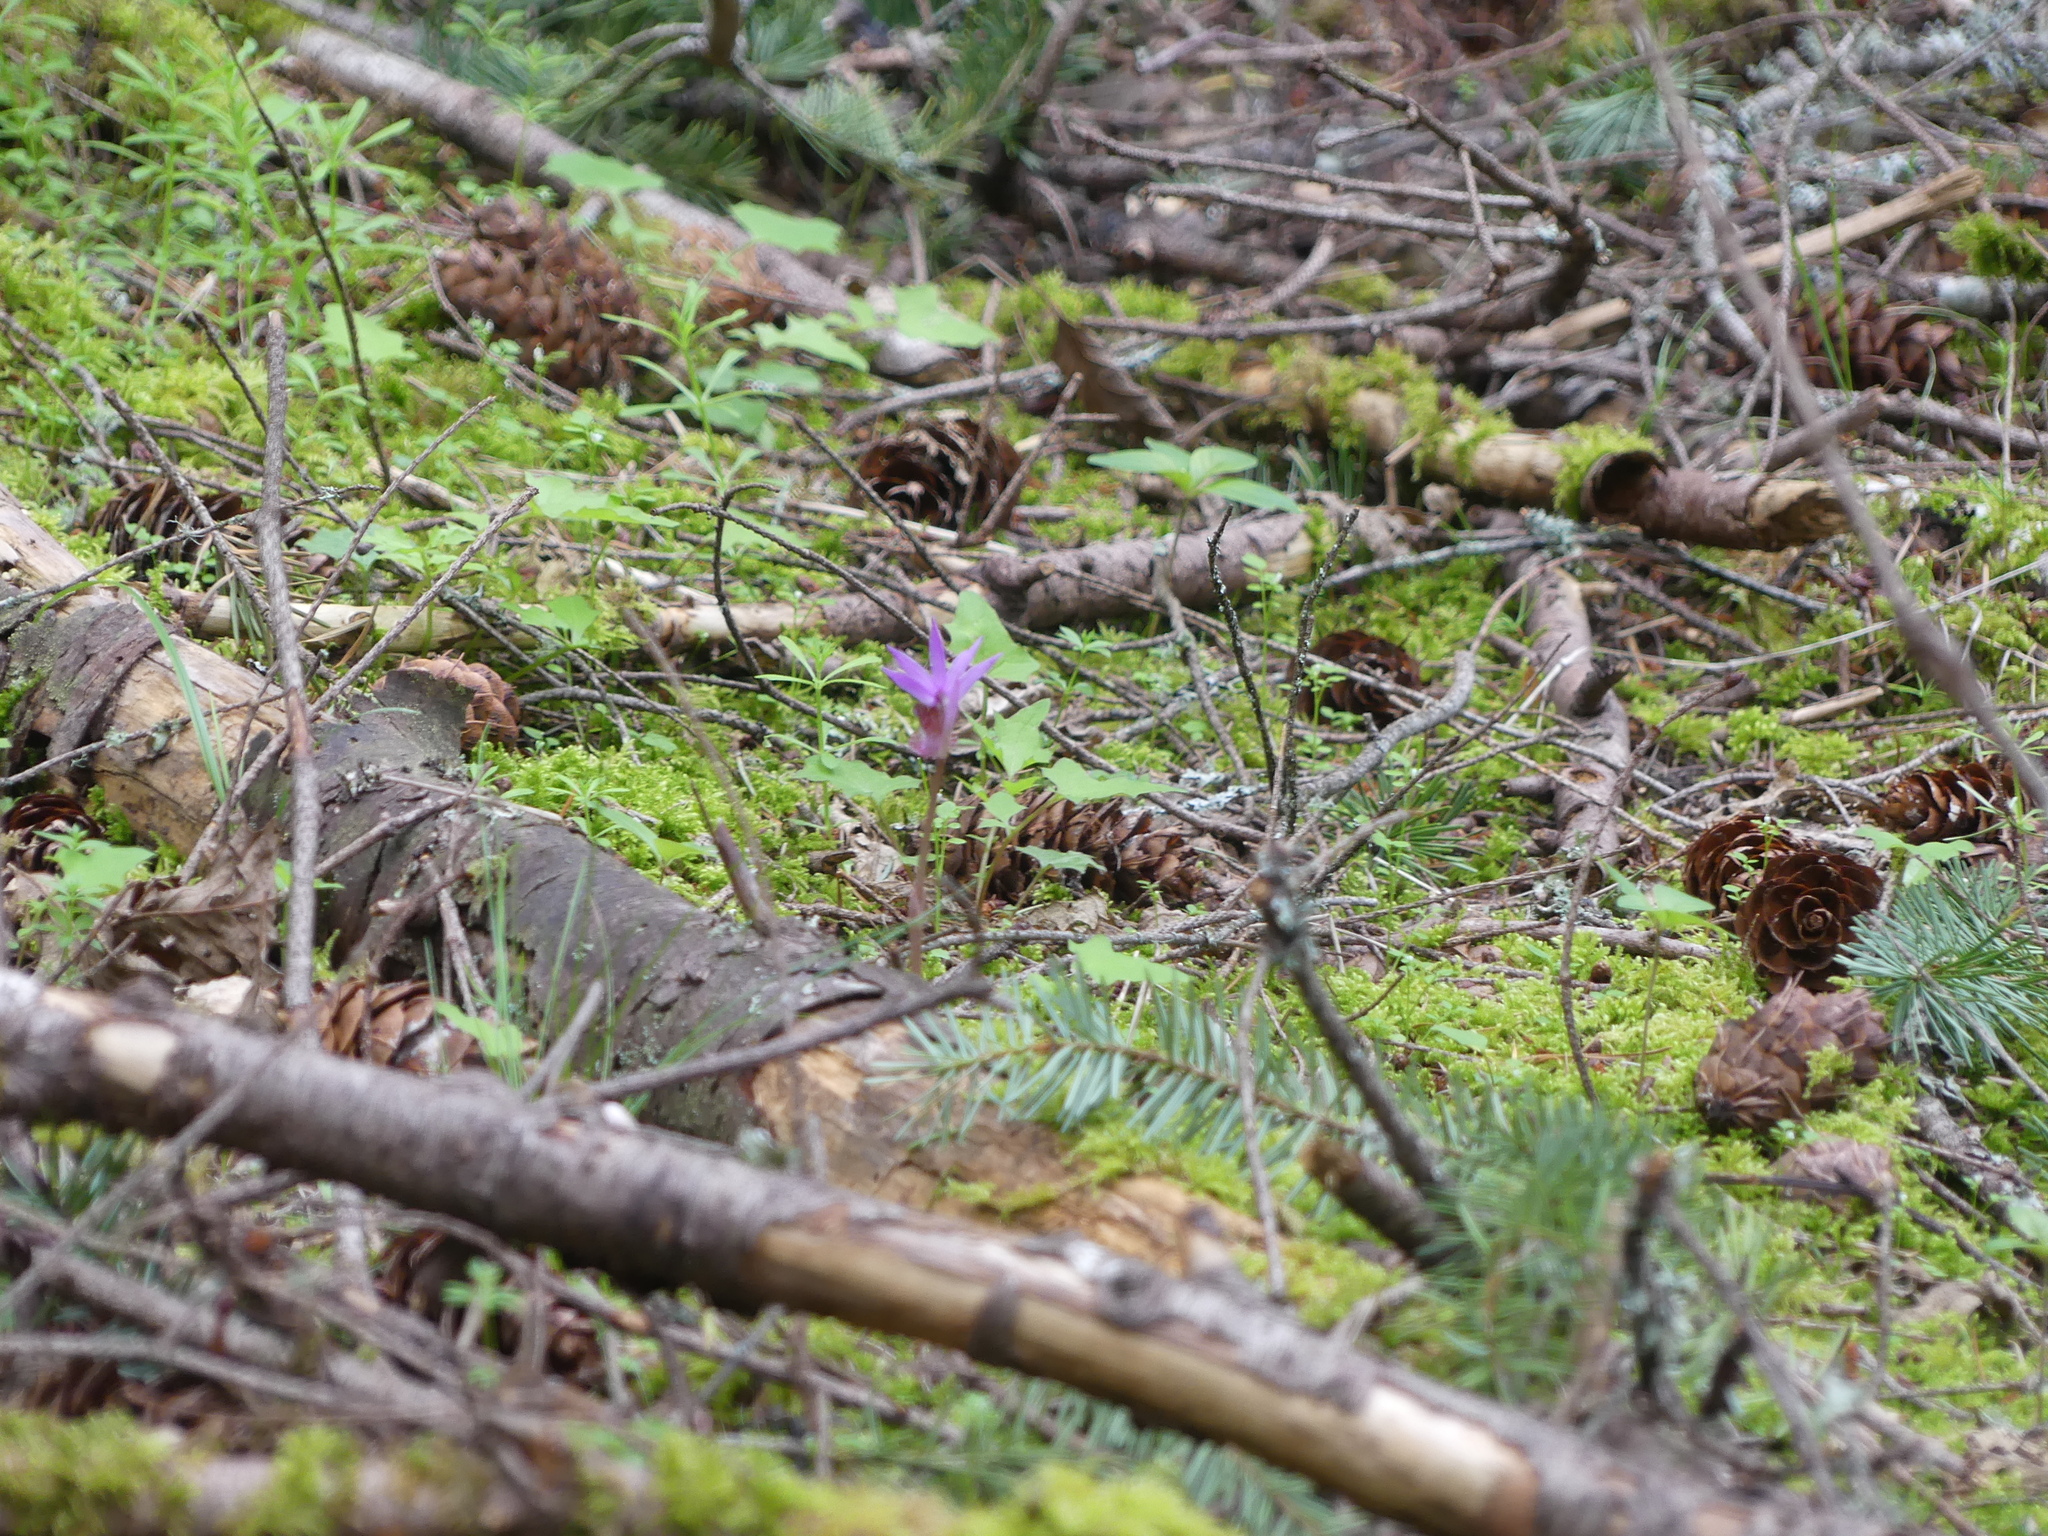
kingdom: Plantae
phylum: Tracheophyta
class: Liliopsida
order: Asparagales
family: Orchidaceae
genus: Calypso
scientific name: Calypso bulbosa
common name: Calypso
